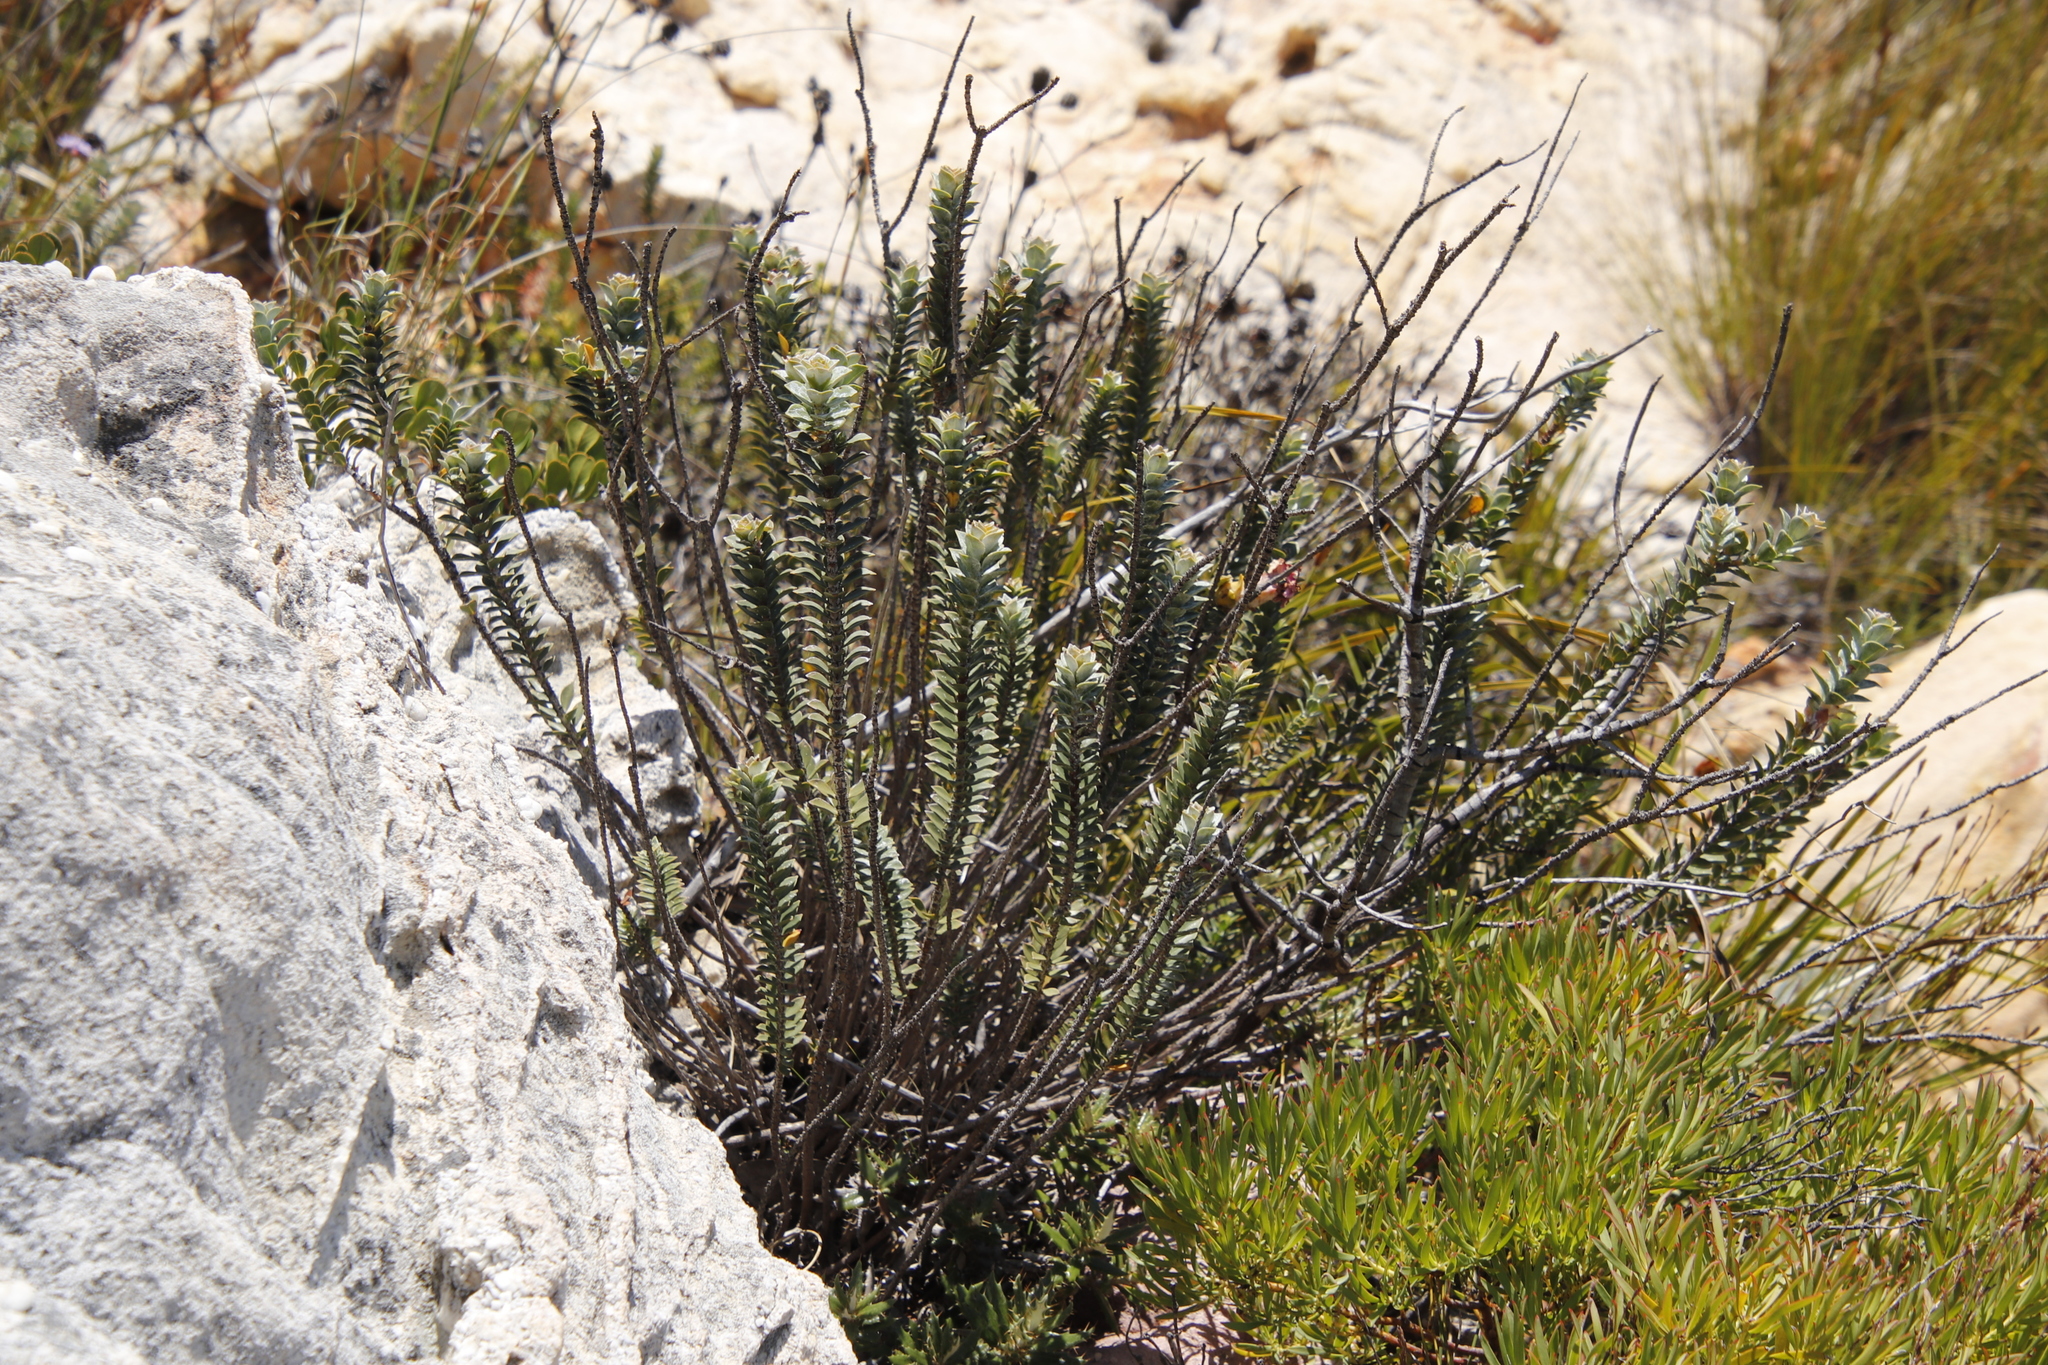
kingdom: Plantae
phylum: Tracheophyta
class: Magnoliopsida
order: Myrtales
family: Penaeaceae
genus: Saltera
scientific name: Saltera sarcocolla
